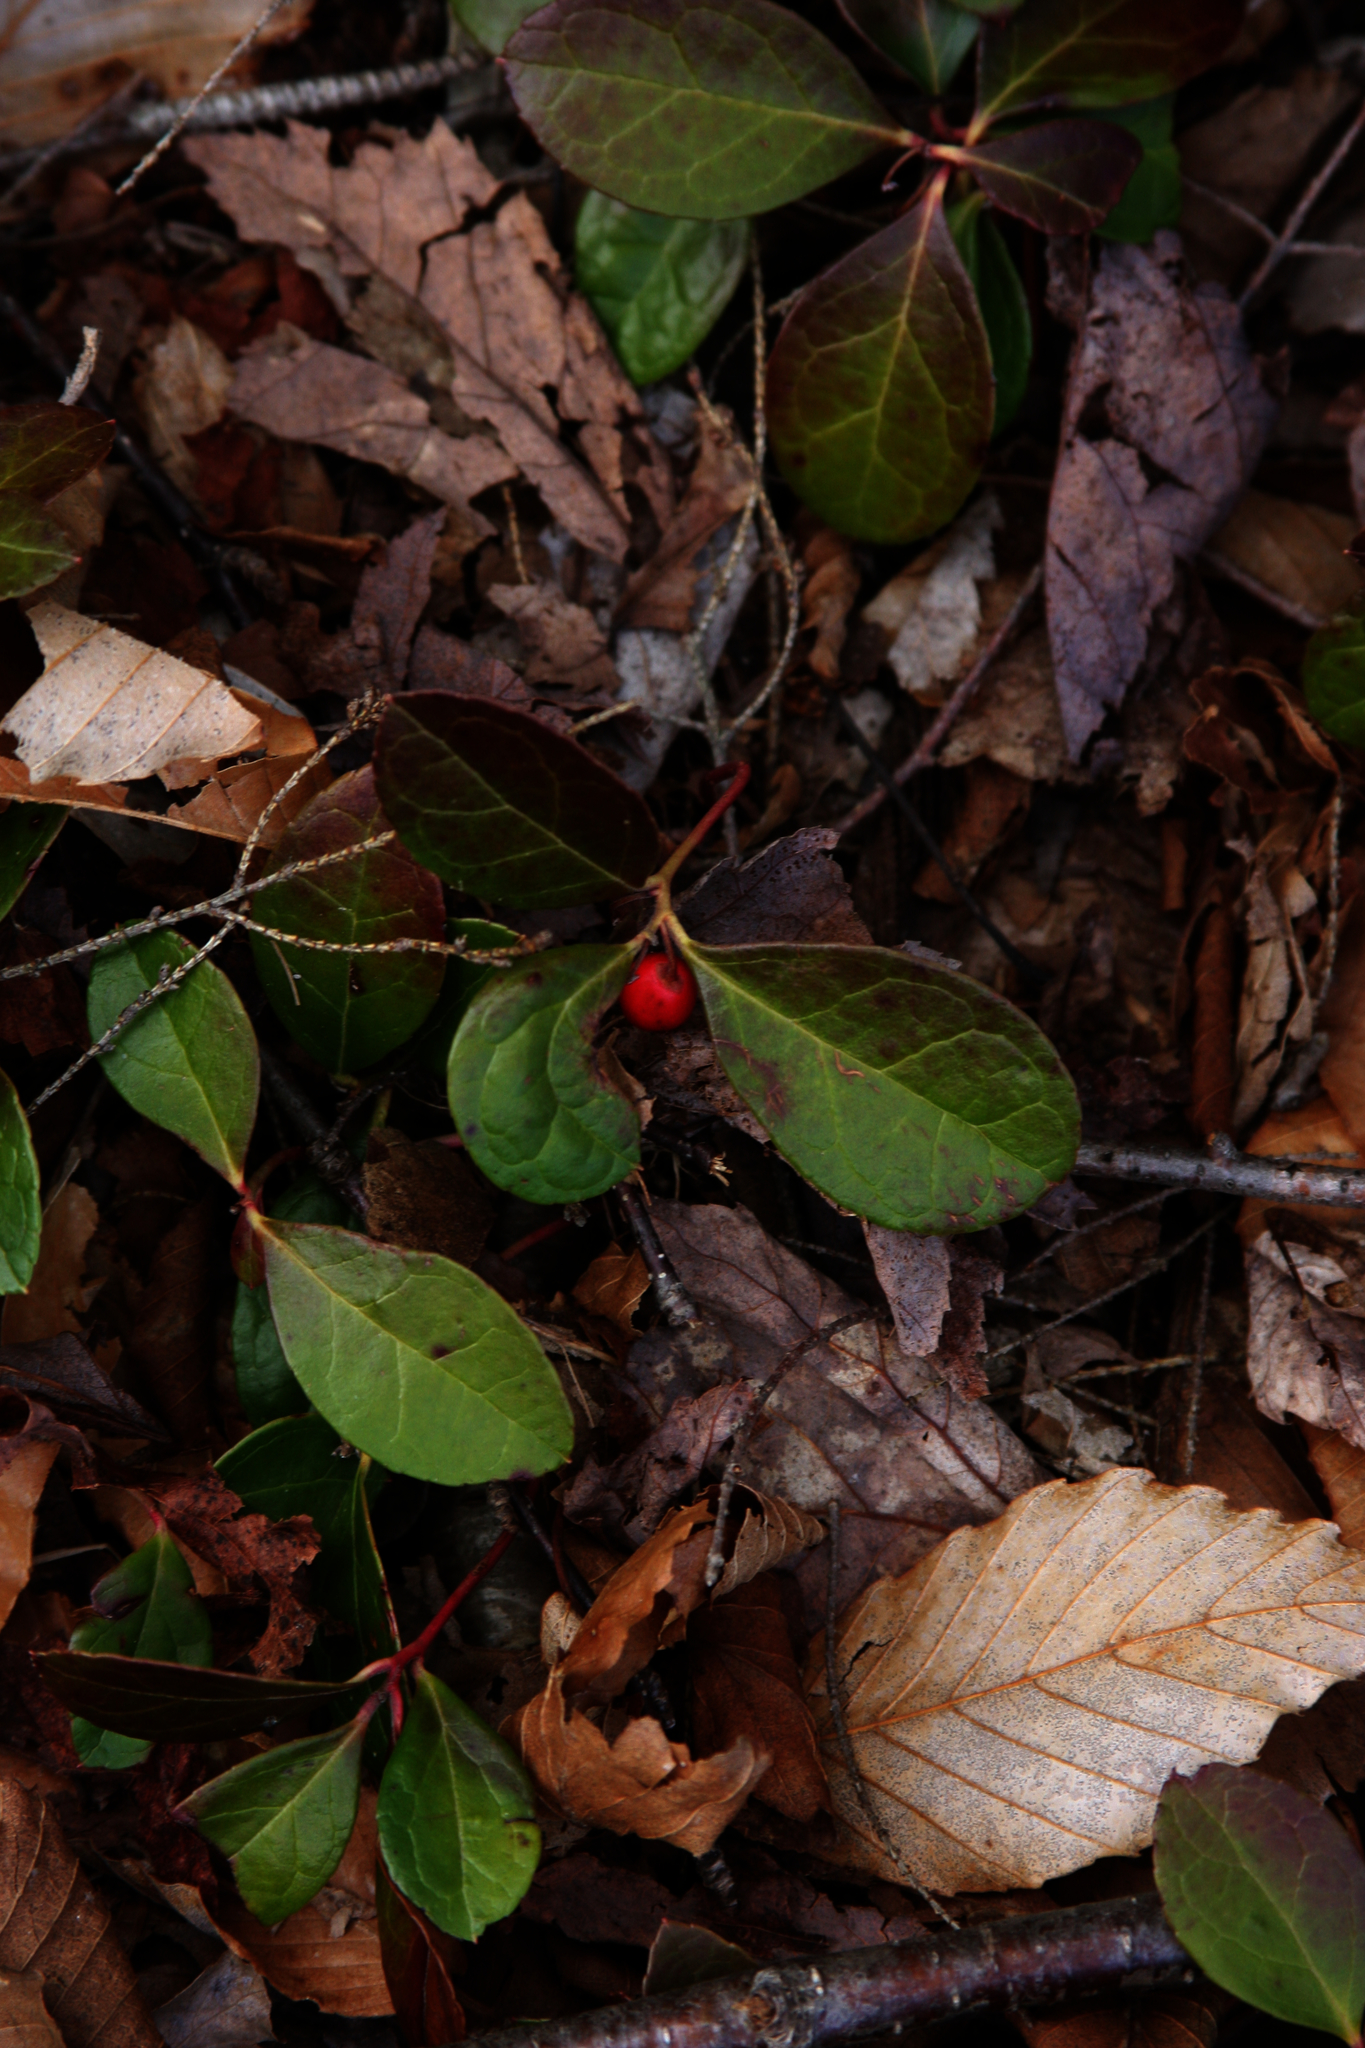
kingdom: Plantae
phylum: Tracheophyta
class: Magnoliopsida
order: Ericales
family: Ericaceae
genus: Gaultheria
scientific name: Gaultheria procumbens
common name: Checkerberry
